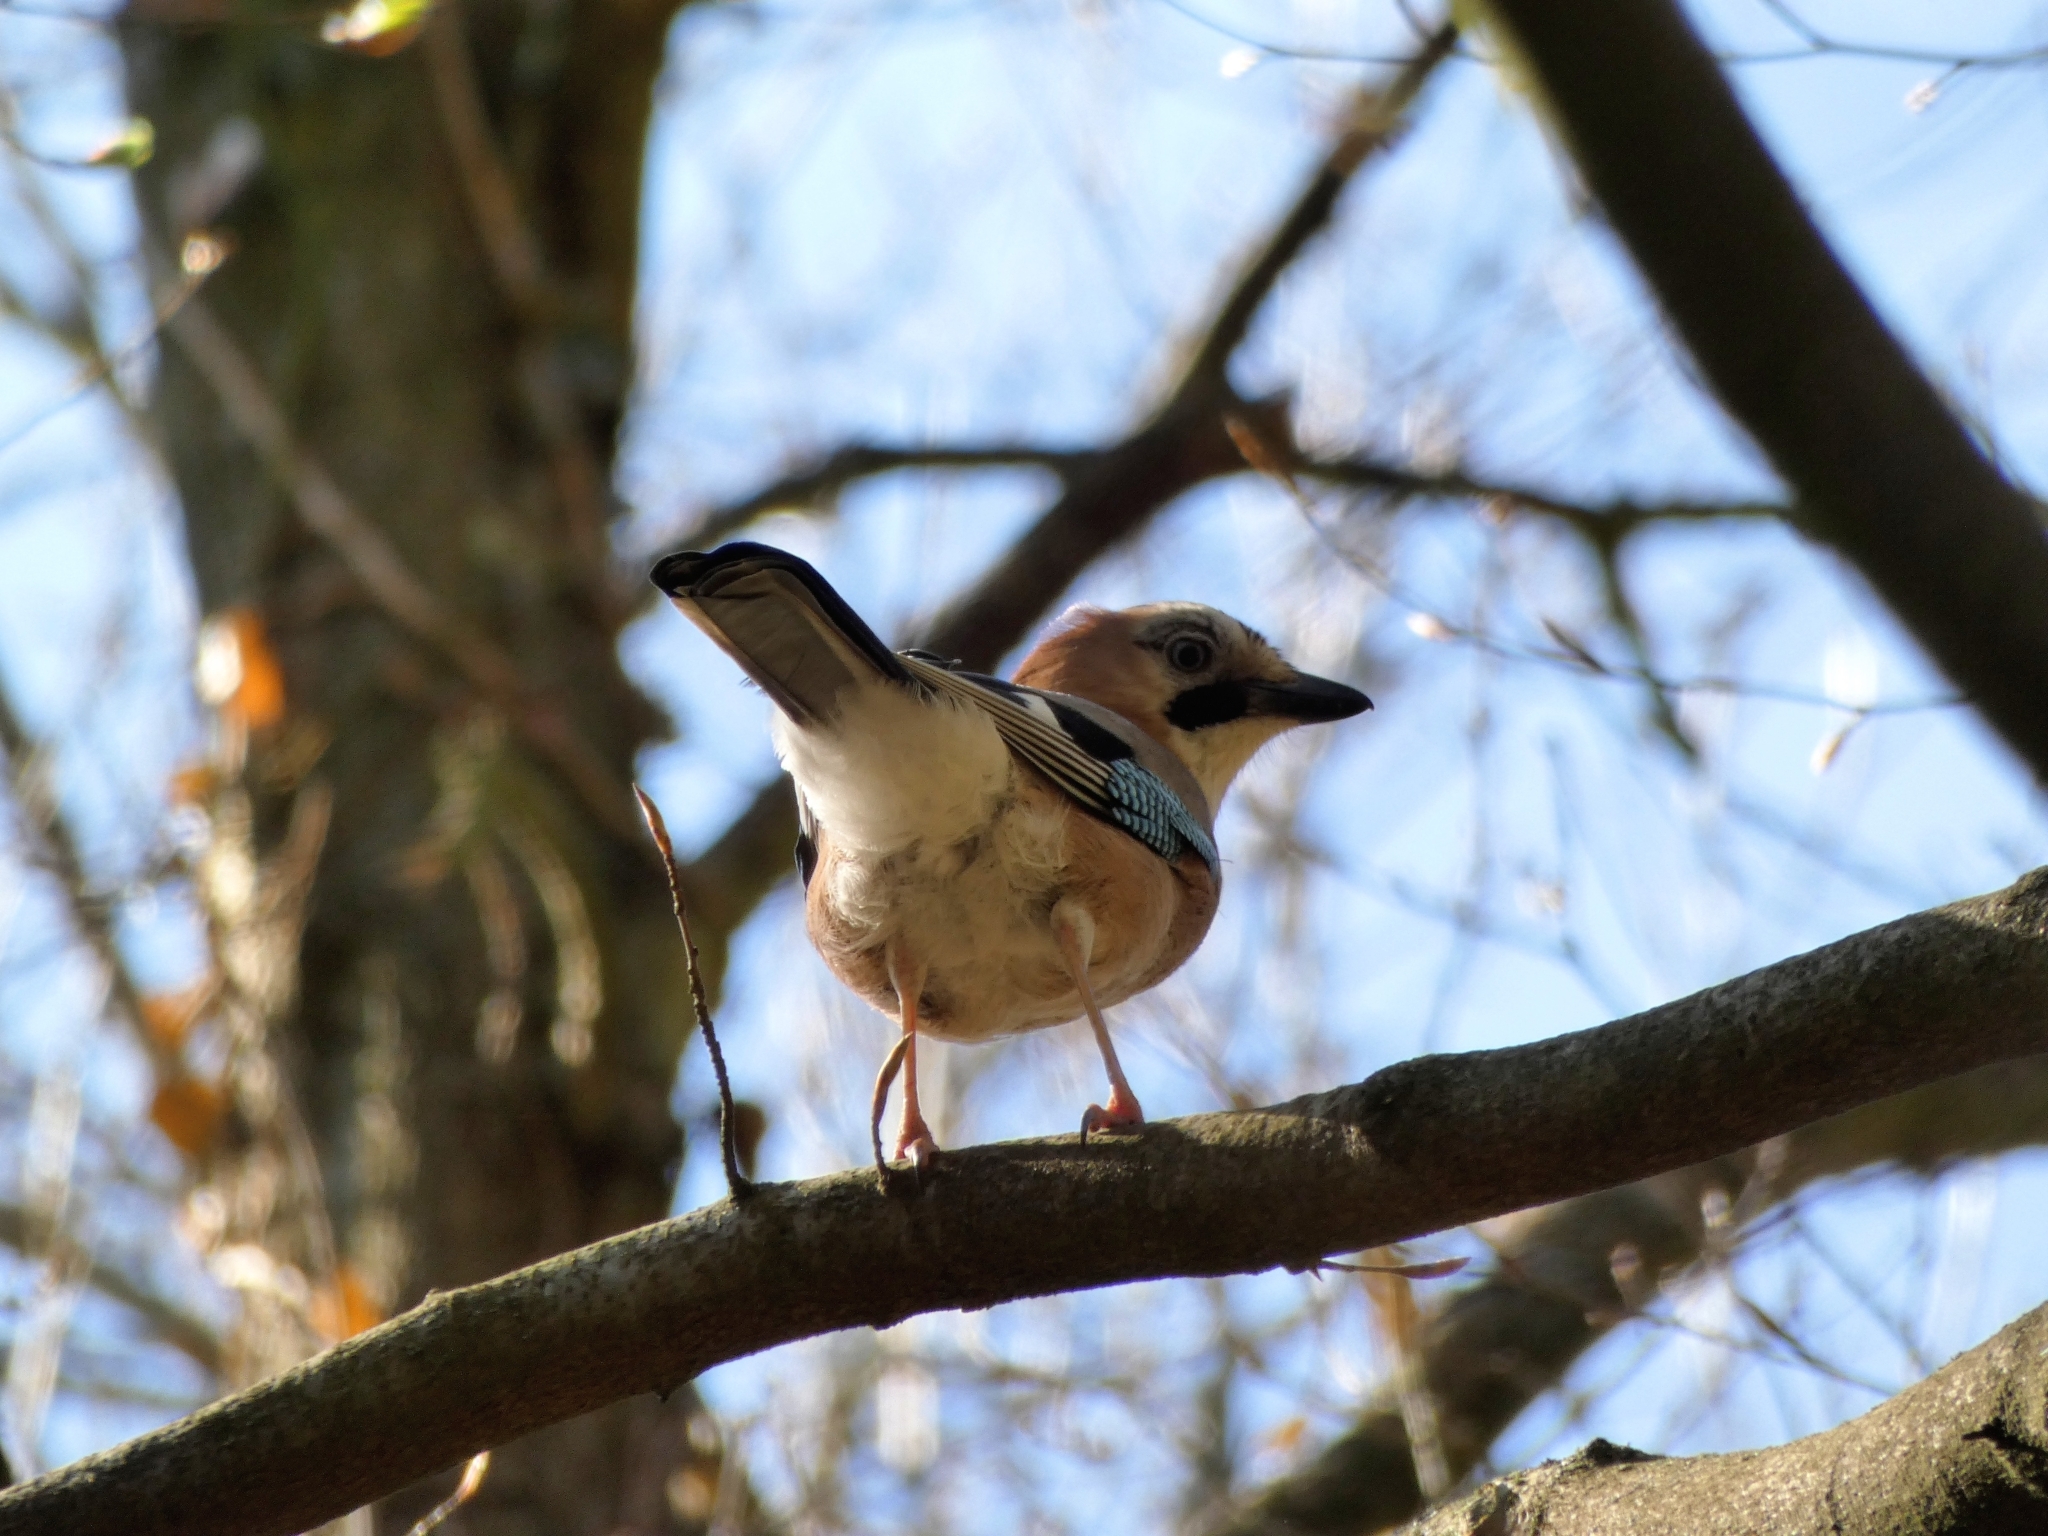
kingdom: Animalia
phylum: Chordata
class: Aves
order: Passeriformes
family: Corvidae
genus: Garrulus
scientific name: Garrulus glandarius
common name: Eurasian jay
